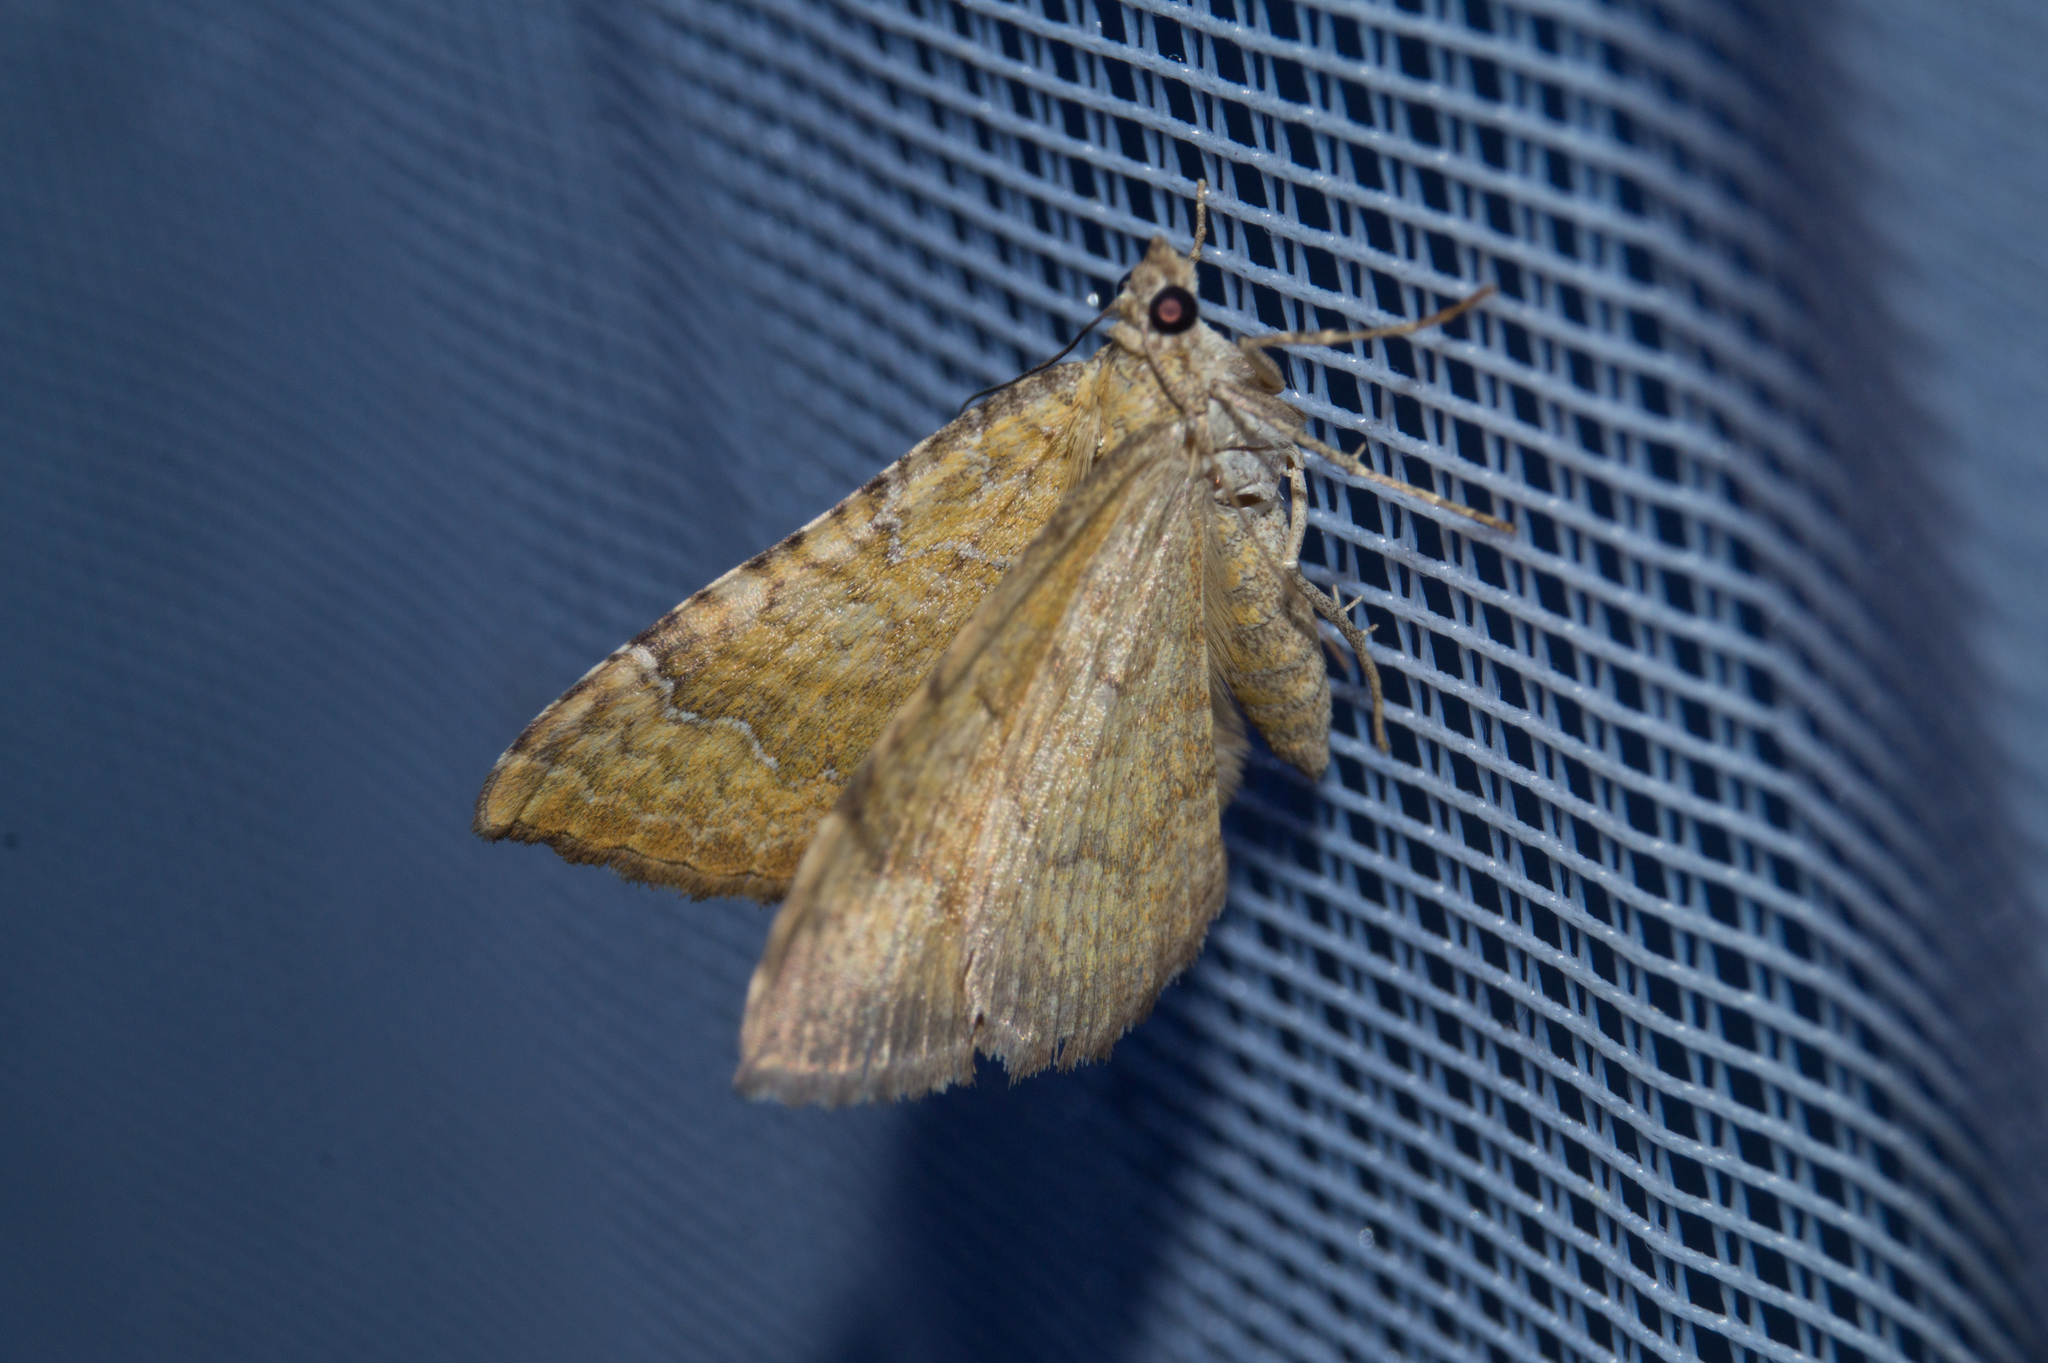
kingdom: Animalia
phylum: Arthropoda
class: Insecta
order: Lepidoptera
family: Geometridae
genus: Camptogramma
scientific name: Camptogramma bilineata
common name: Yellow shell
